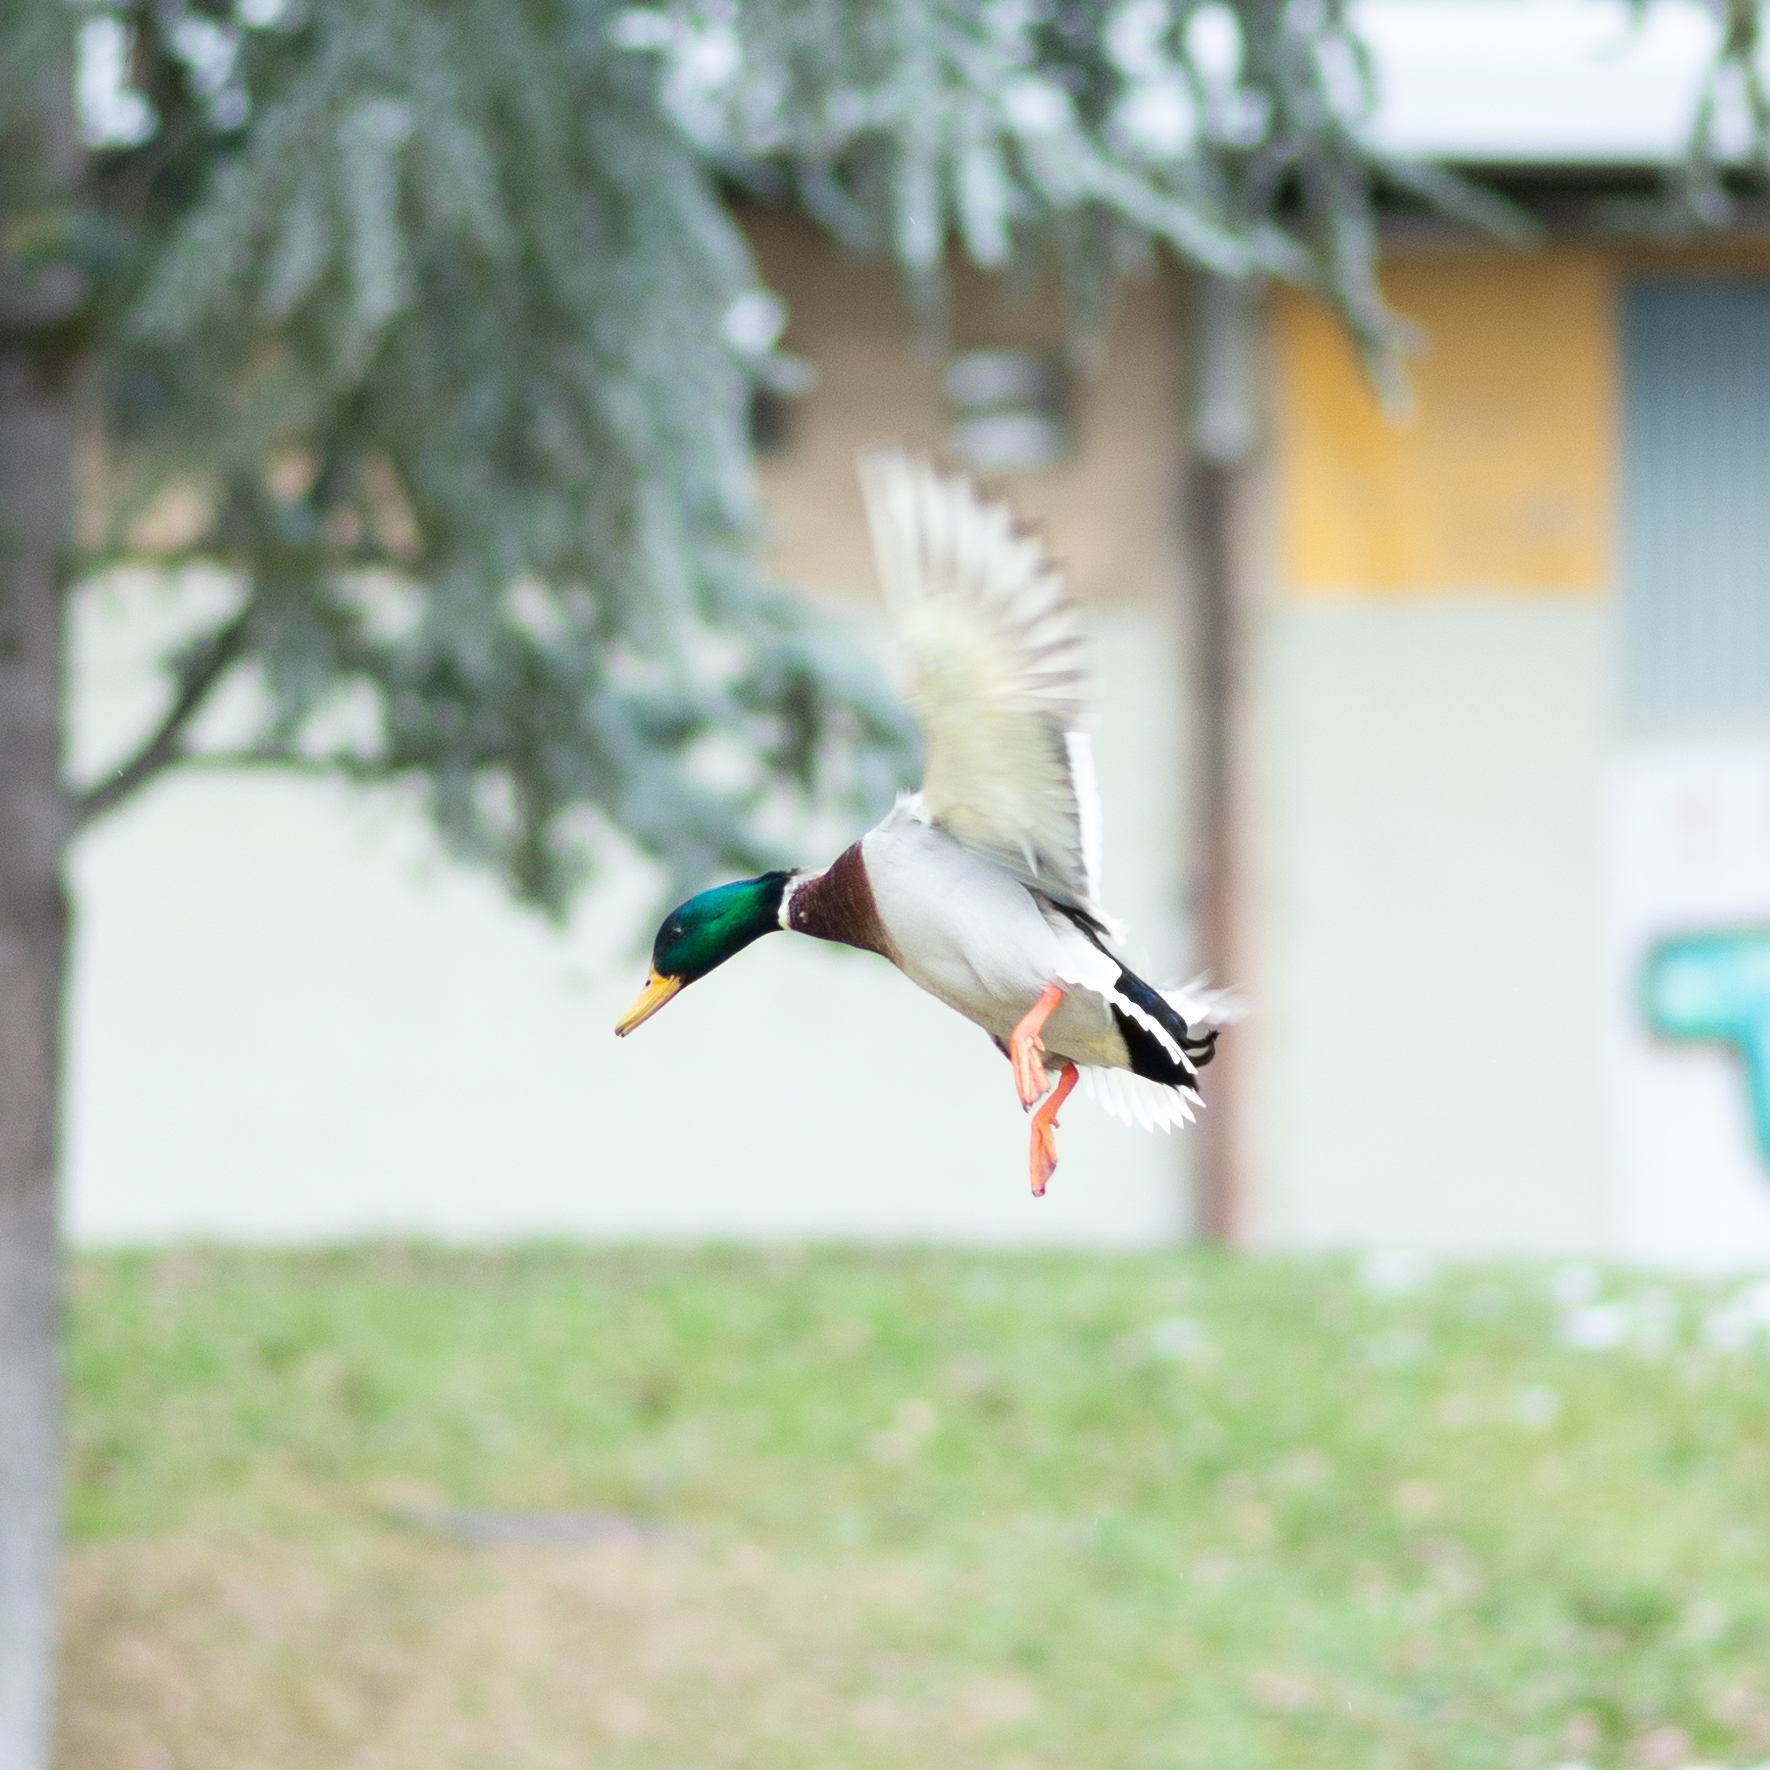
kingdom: Animalia
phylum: Chordata
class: Aves
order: Anseriformes
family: Anatidae
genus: Anas
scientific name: Anas platyrhynchos
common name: Mallard
